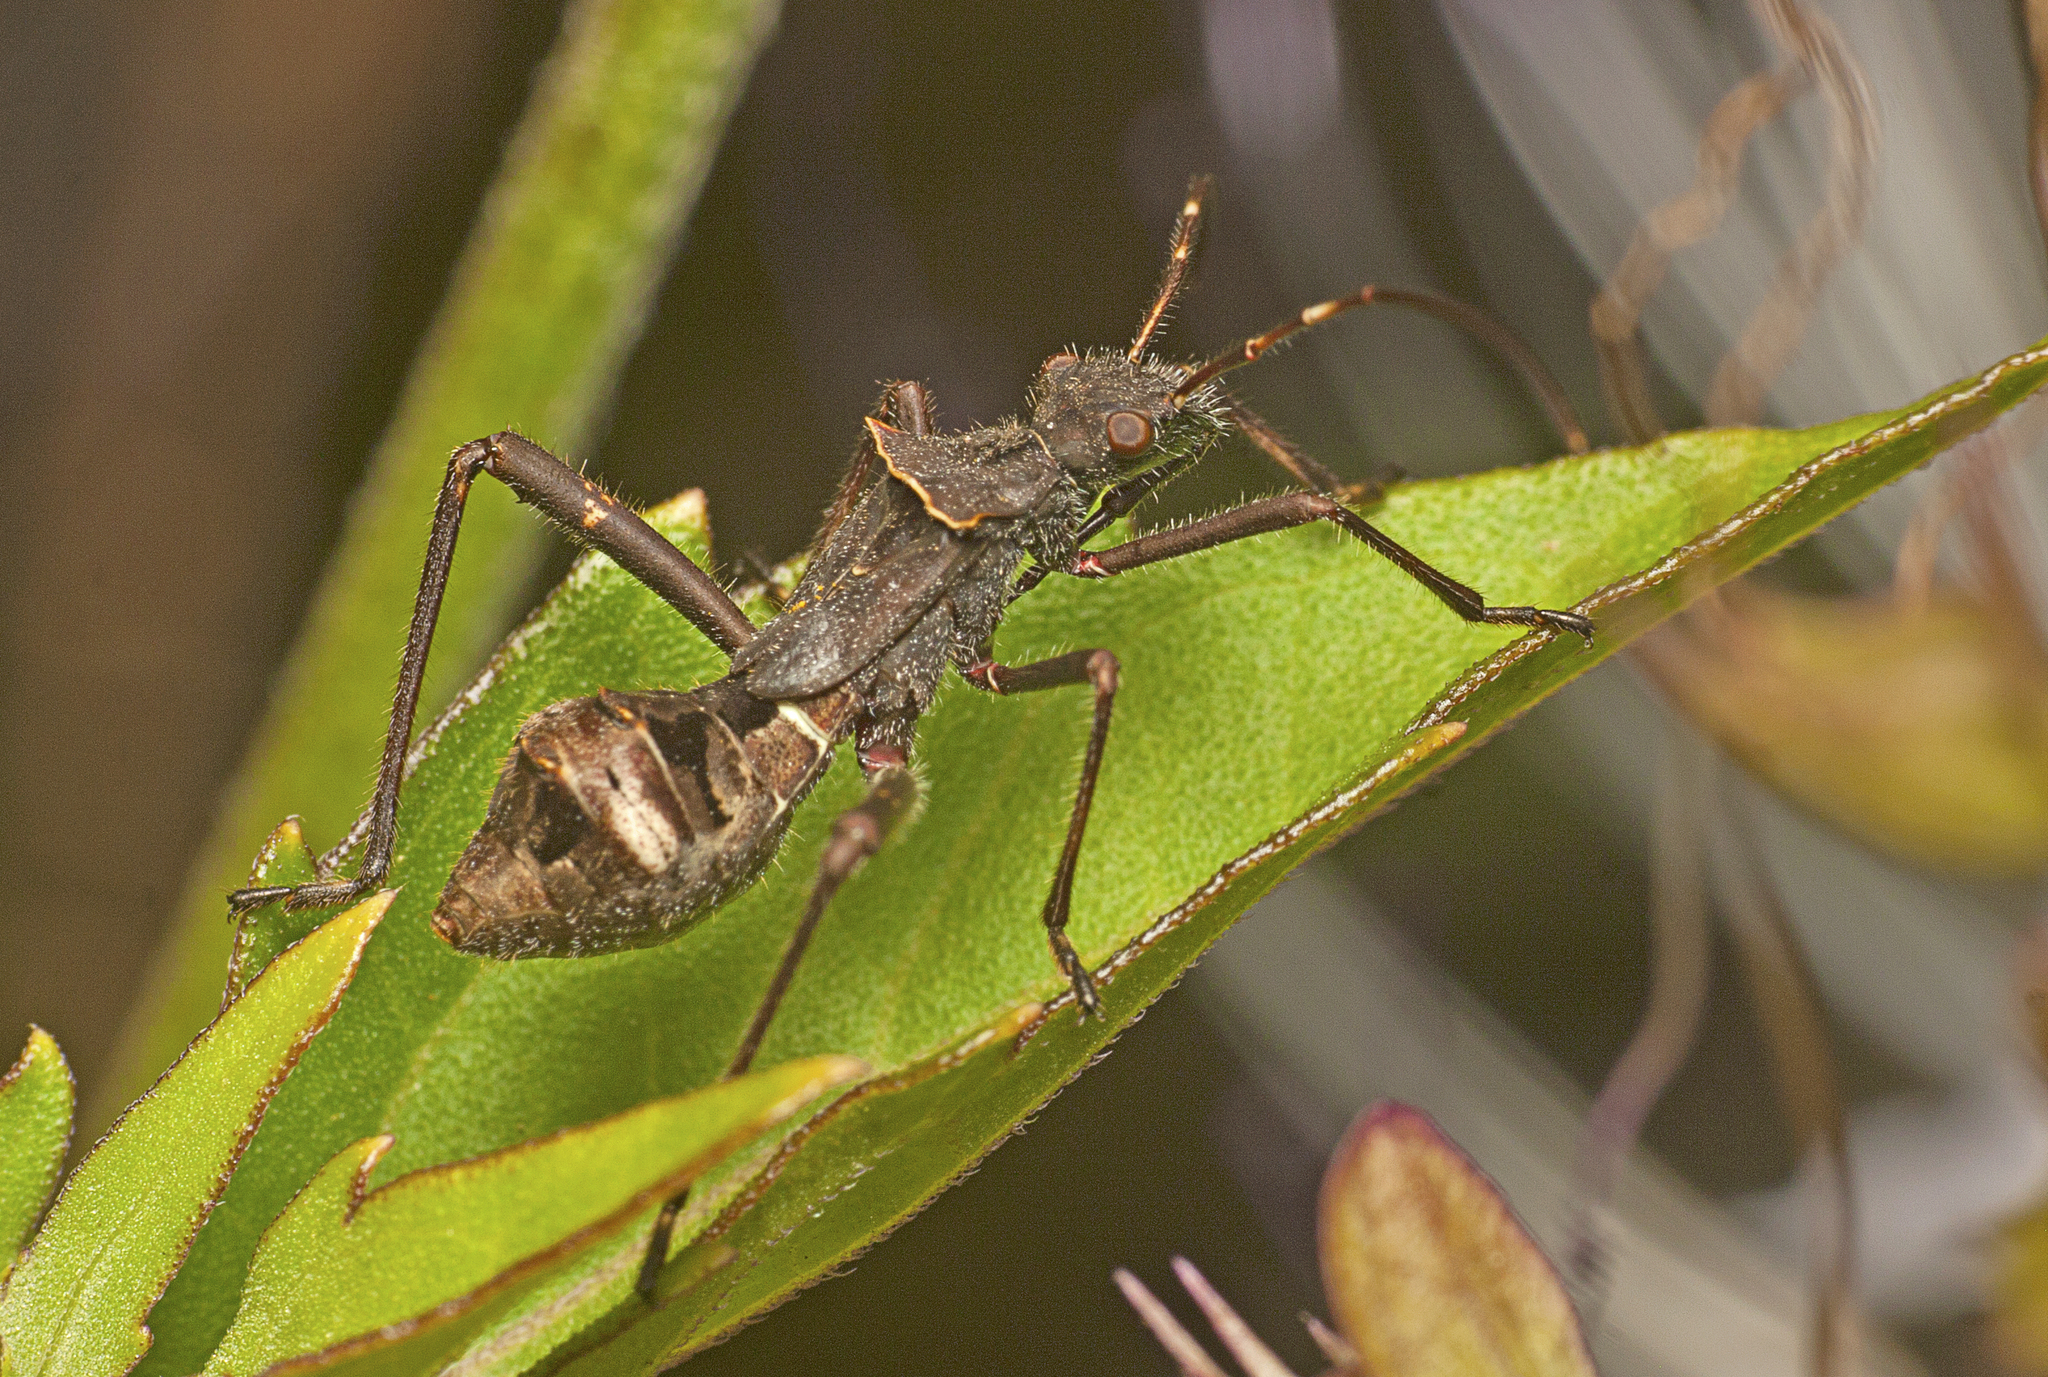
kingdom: Animalia
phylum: Arthropoda
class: Insecta
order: Hemiptera
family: Alydidae
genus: Riptortus
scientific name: Riptortus serripes
